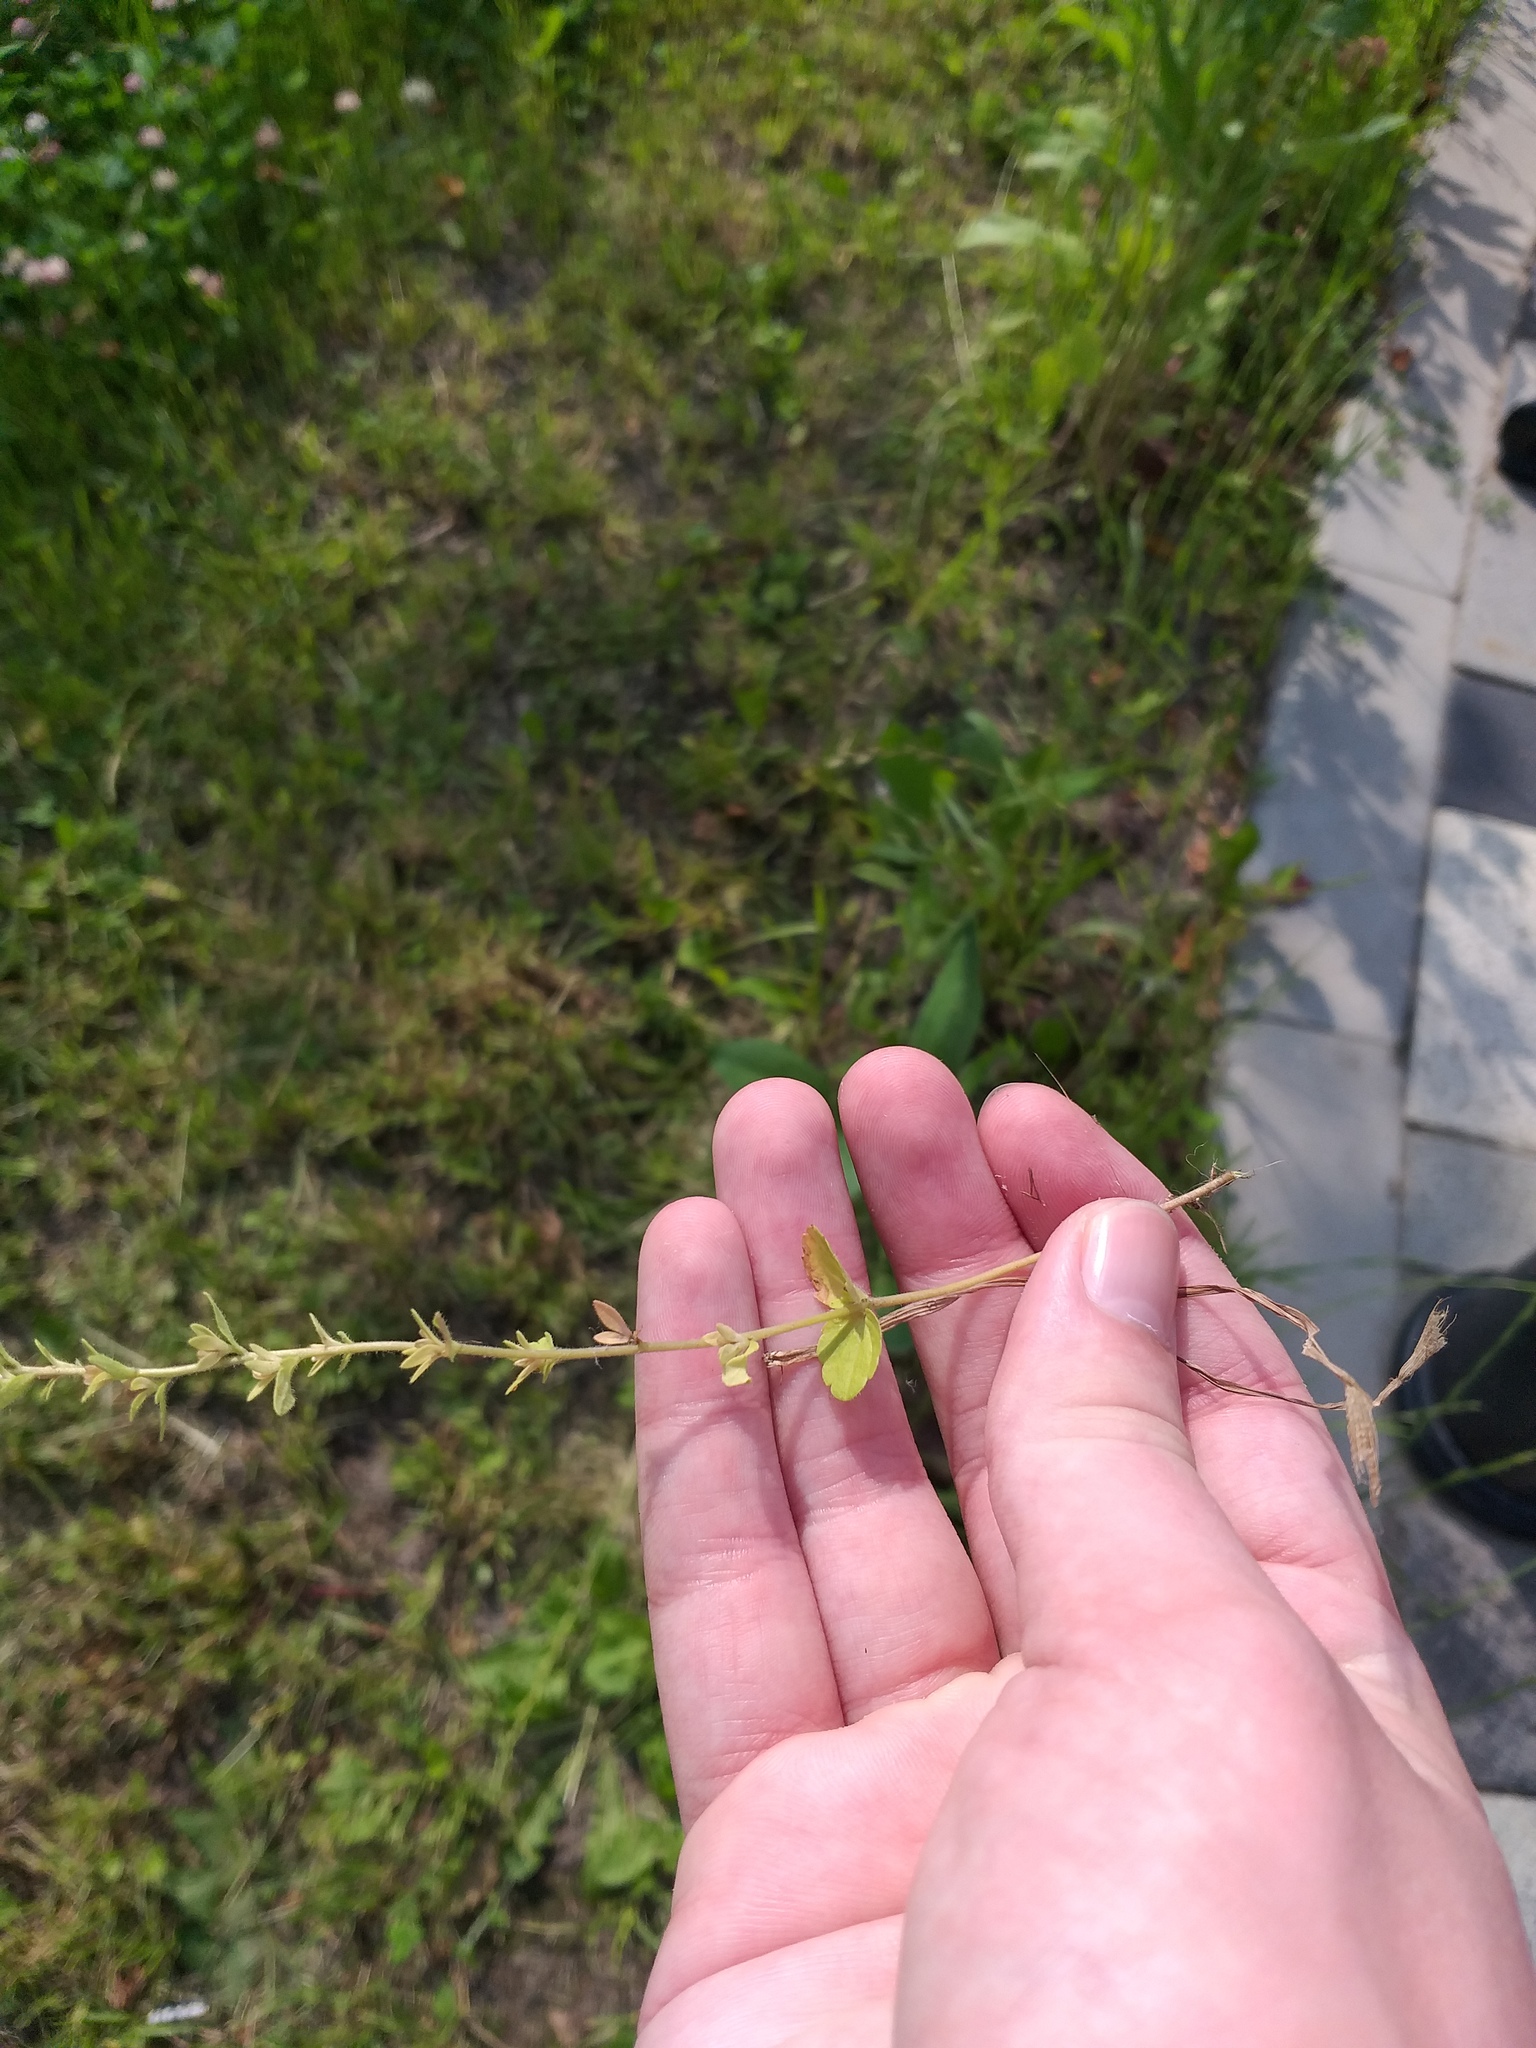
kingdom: Plantae
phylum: Tracheophyta
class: Magnoliopsida
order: Lamiales
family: Plantaginaceae
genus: Veronica
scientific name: Veronica arvensis
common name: Corn speedwell
